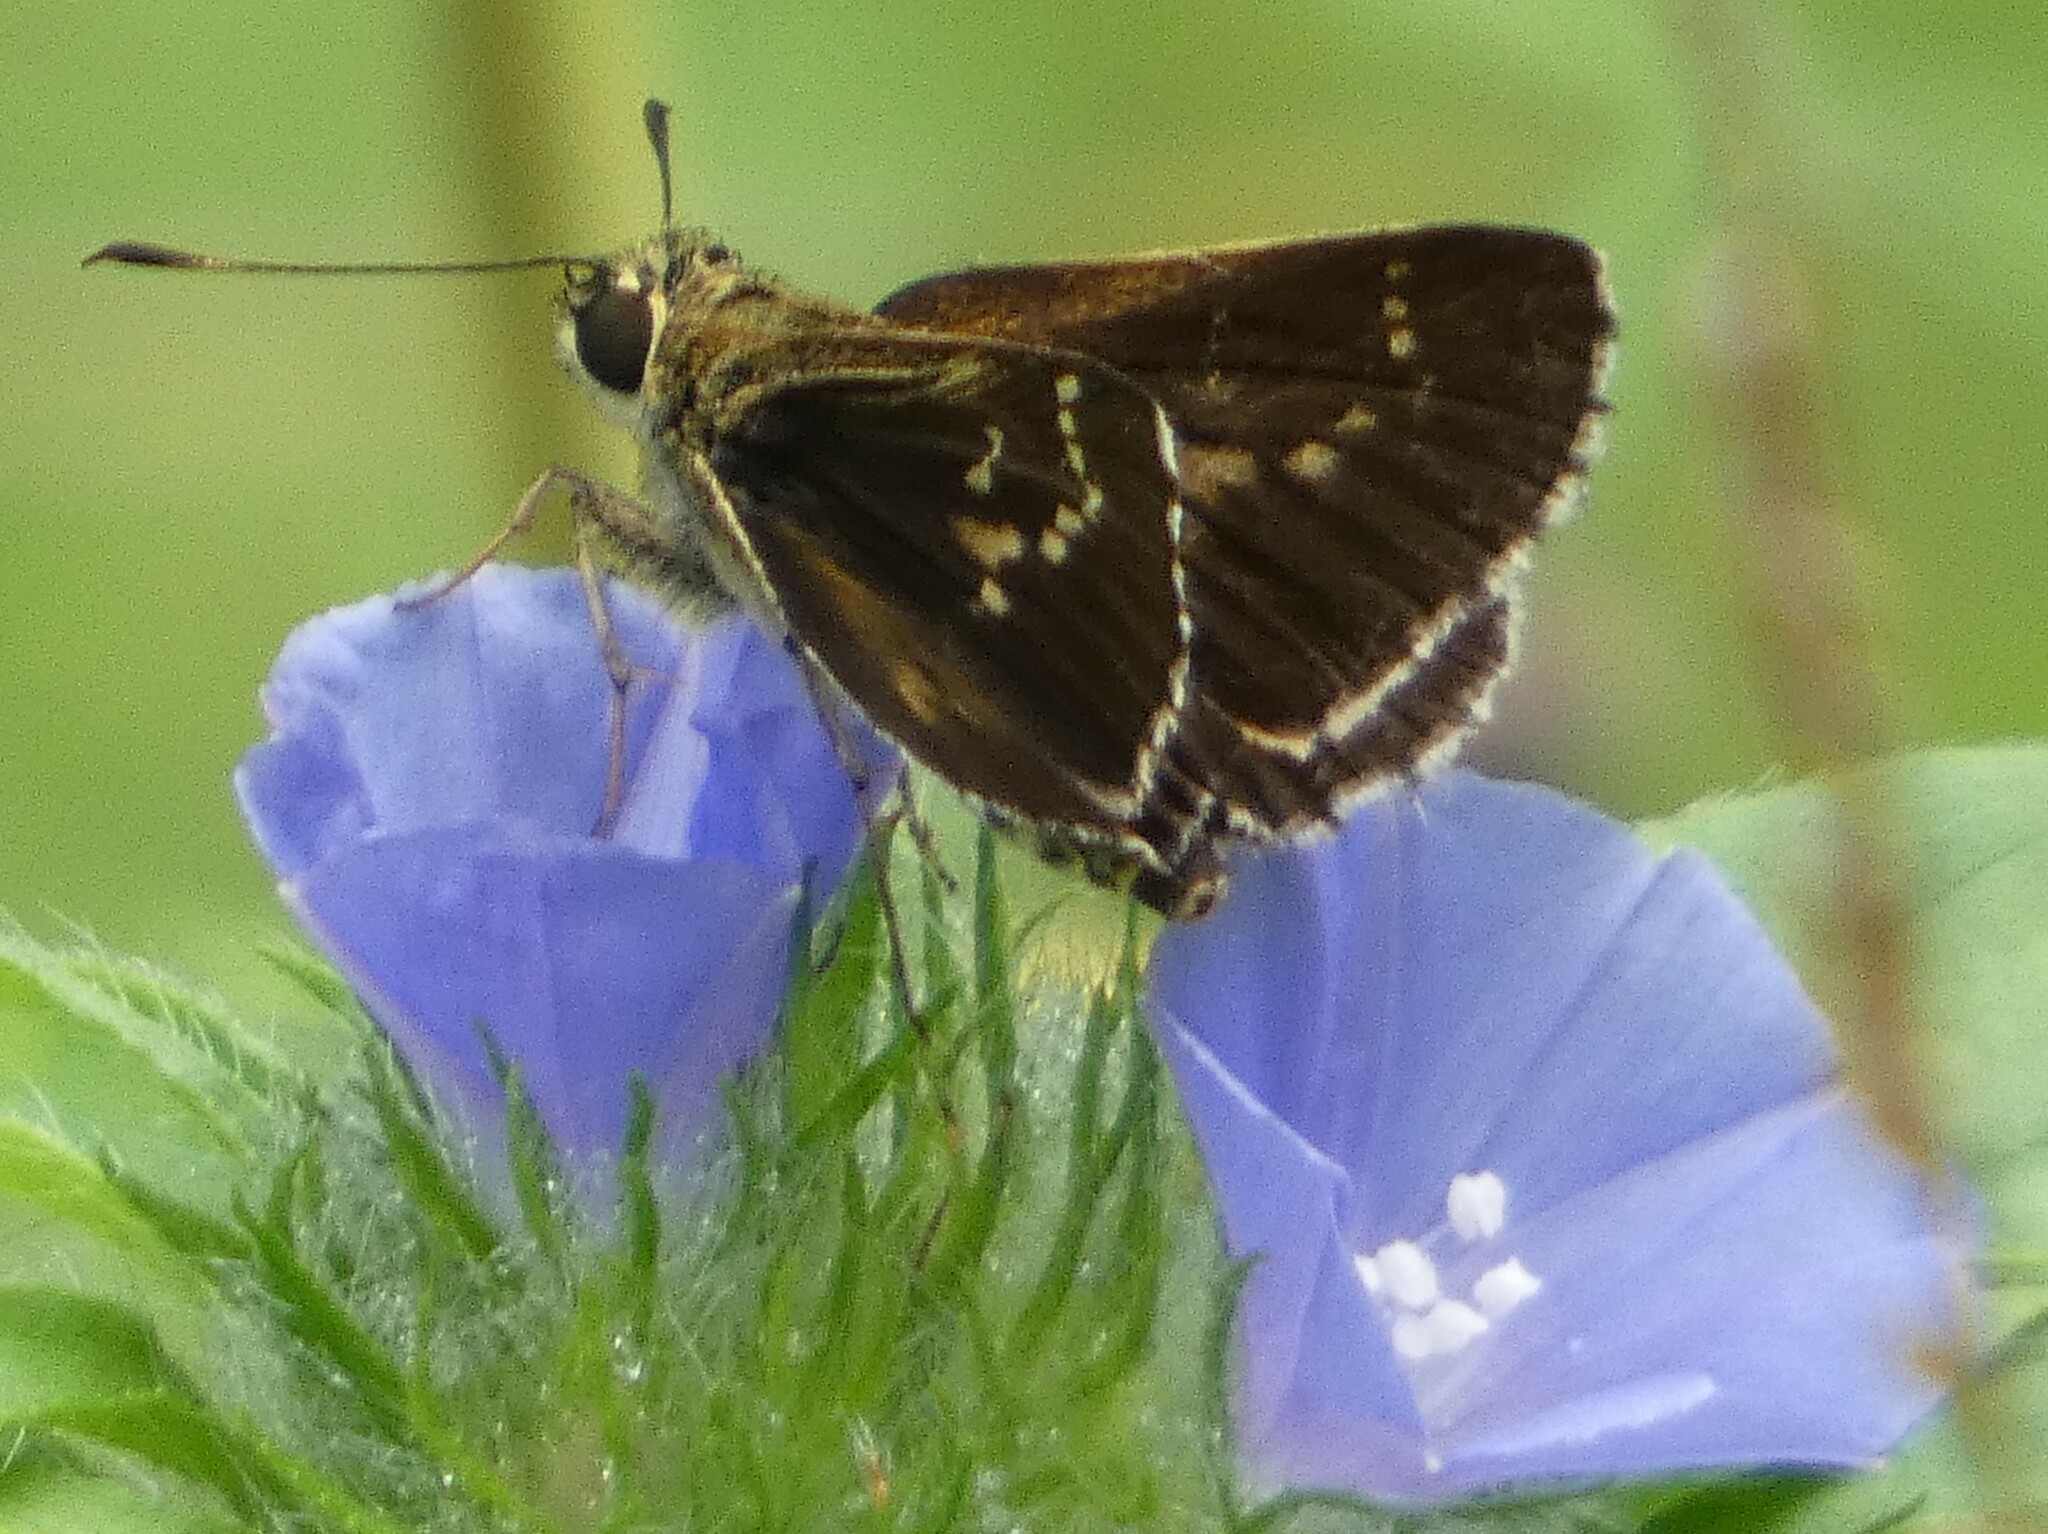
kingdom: Animalia
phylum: Arthropoda
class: Insecta
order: Lepidoptera
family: Hesperiidae
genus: Mastor
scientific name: Mastor aesculapius
